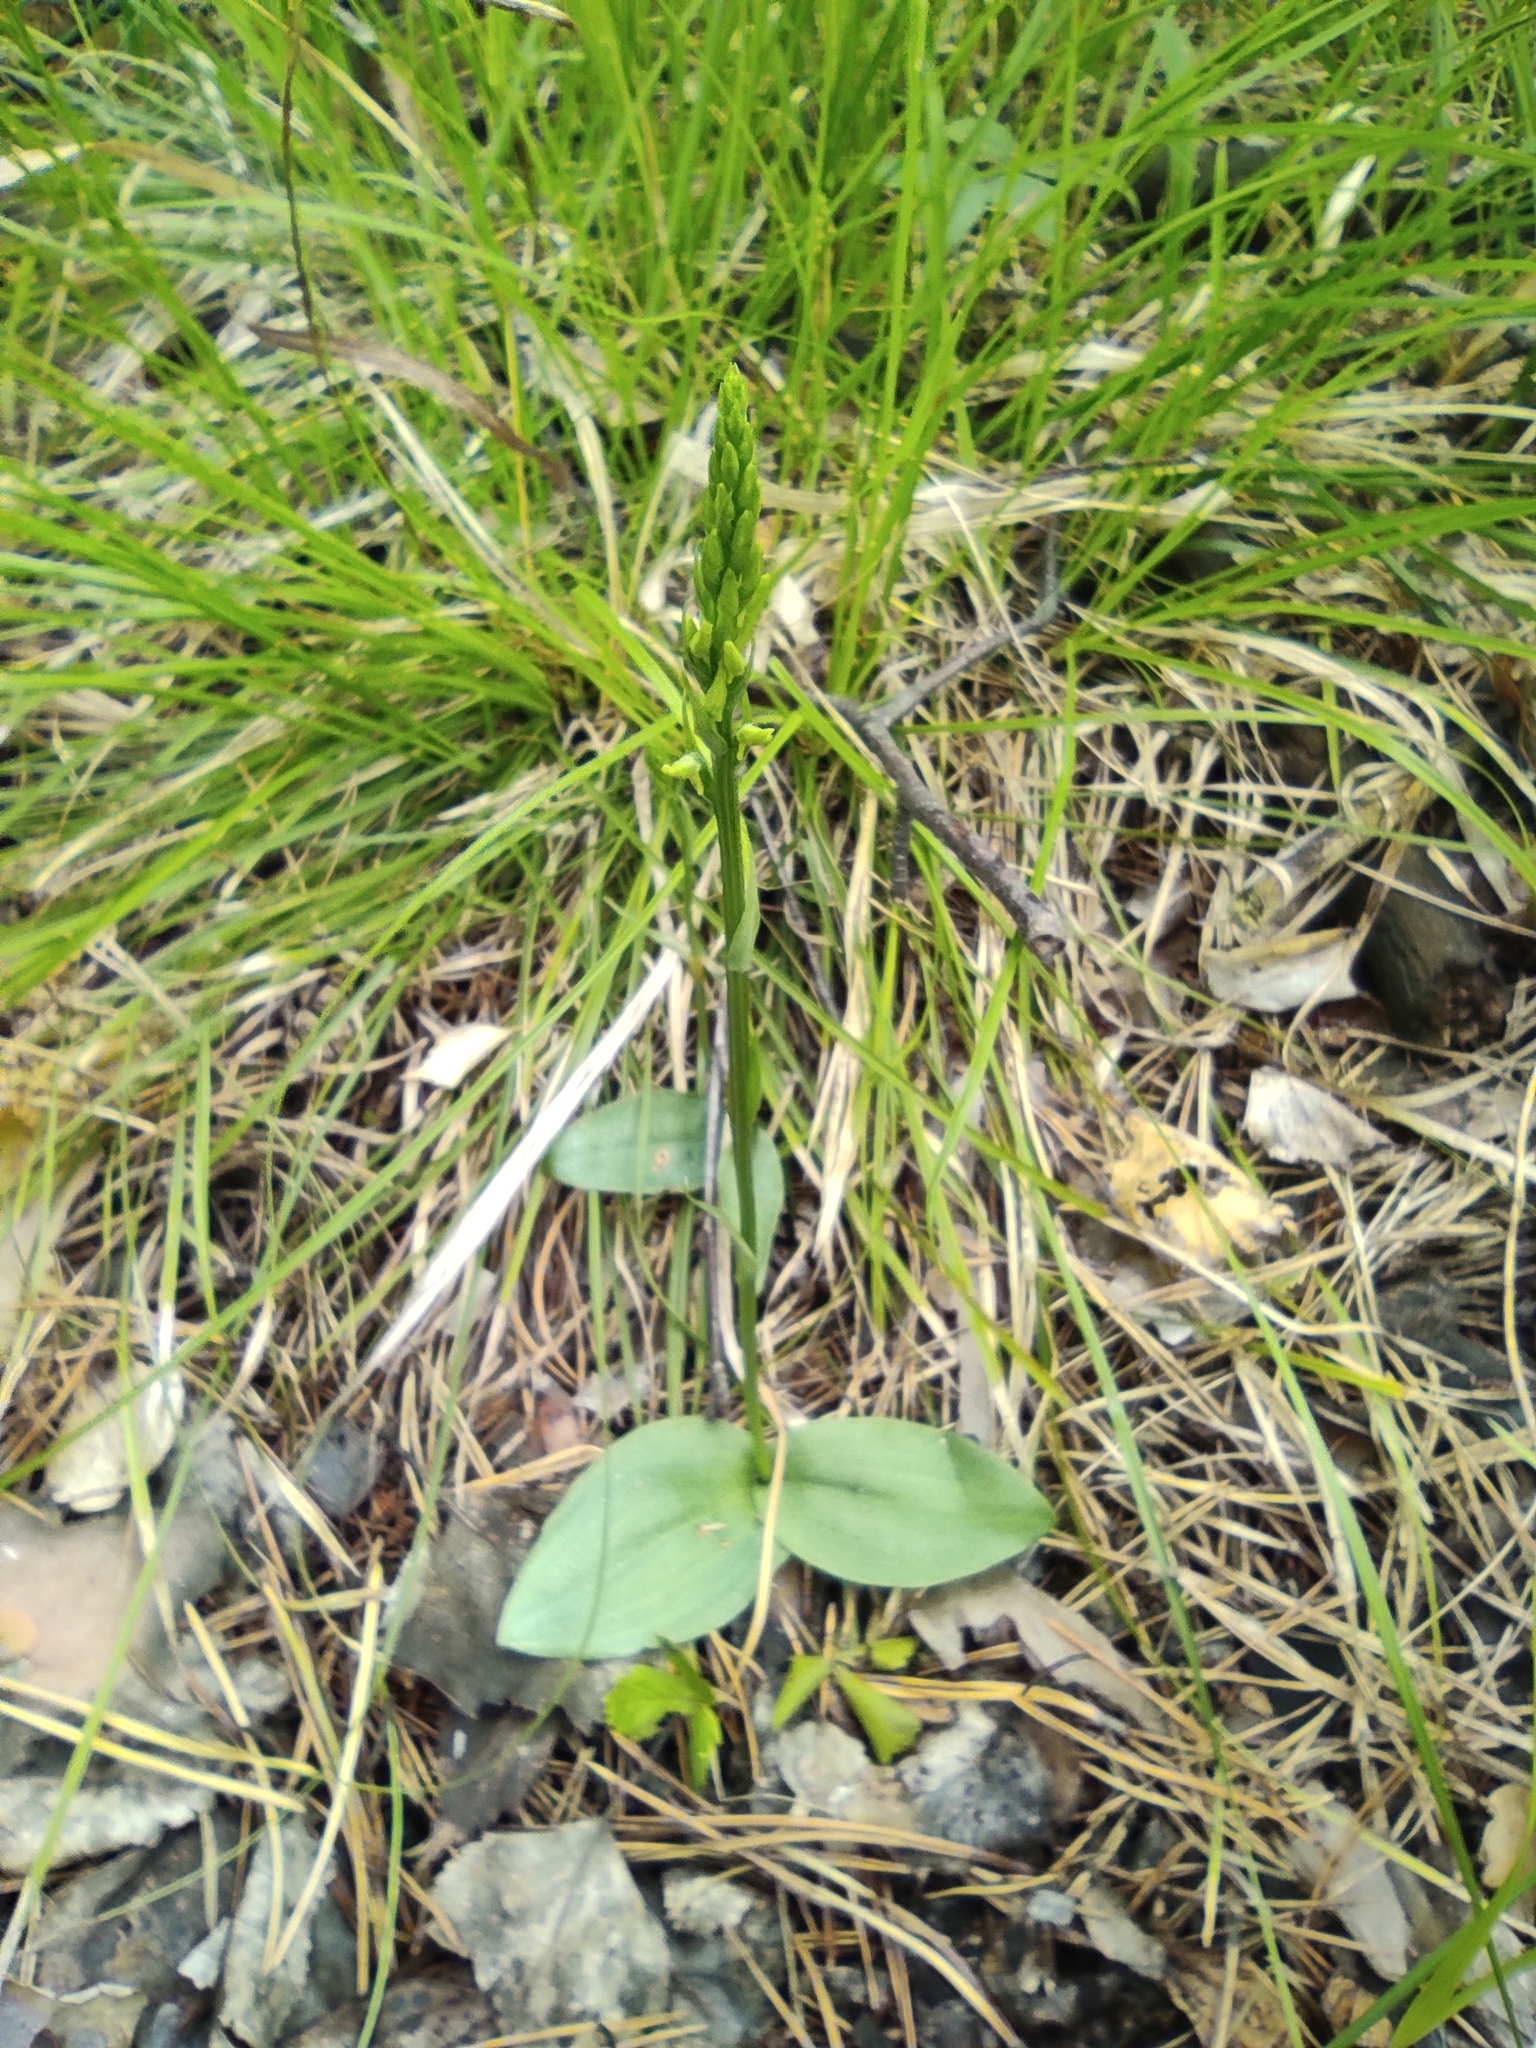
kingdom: Plantae
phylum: Tracheophyta
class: Liliopsida
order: Asparagales
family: Orchidaceae
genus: Hemipilia
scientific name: Hemipilia cucullata
